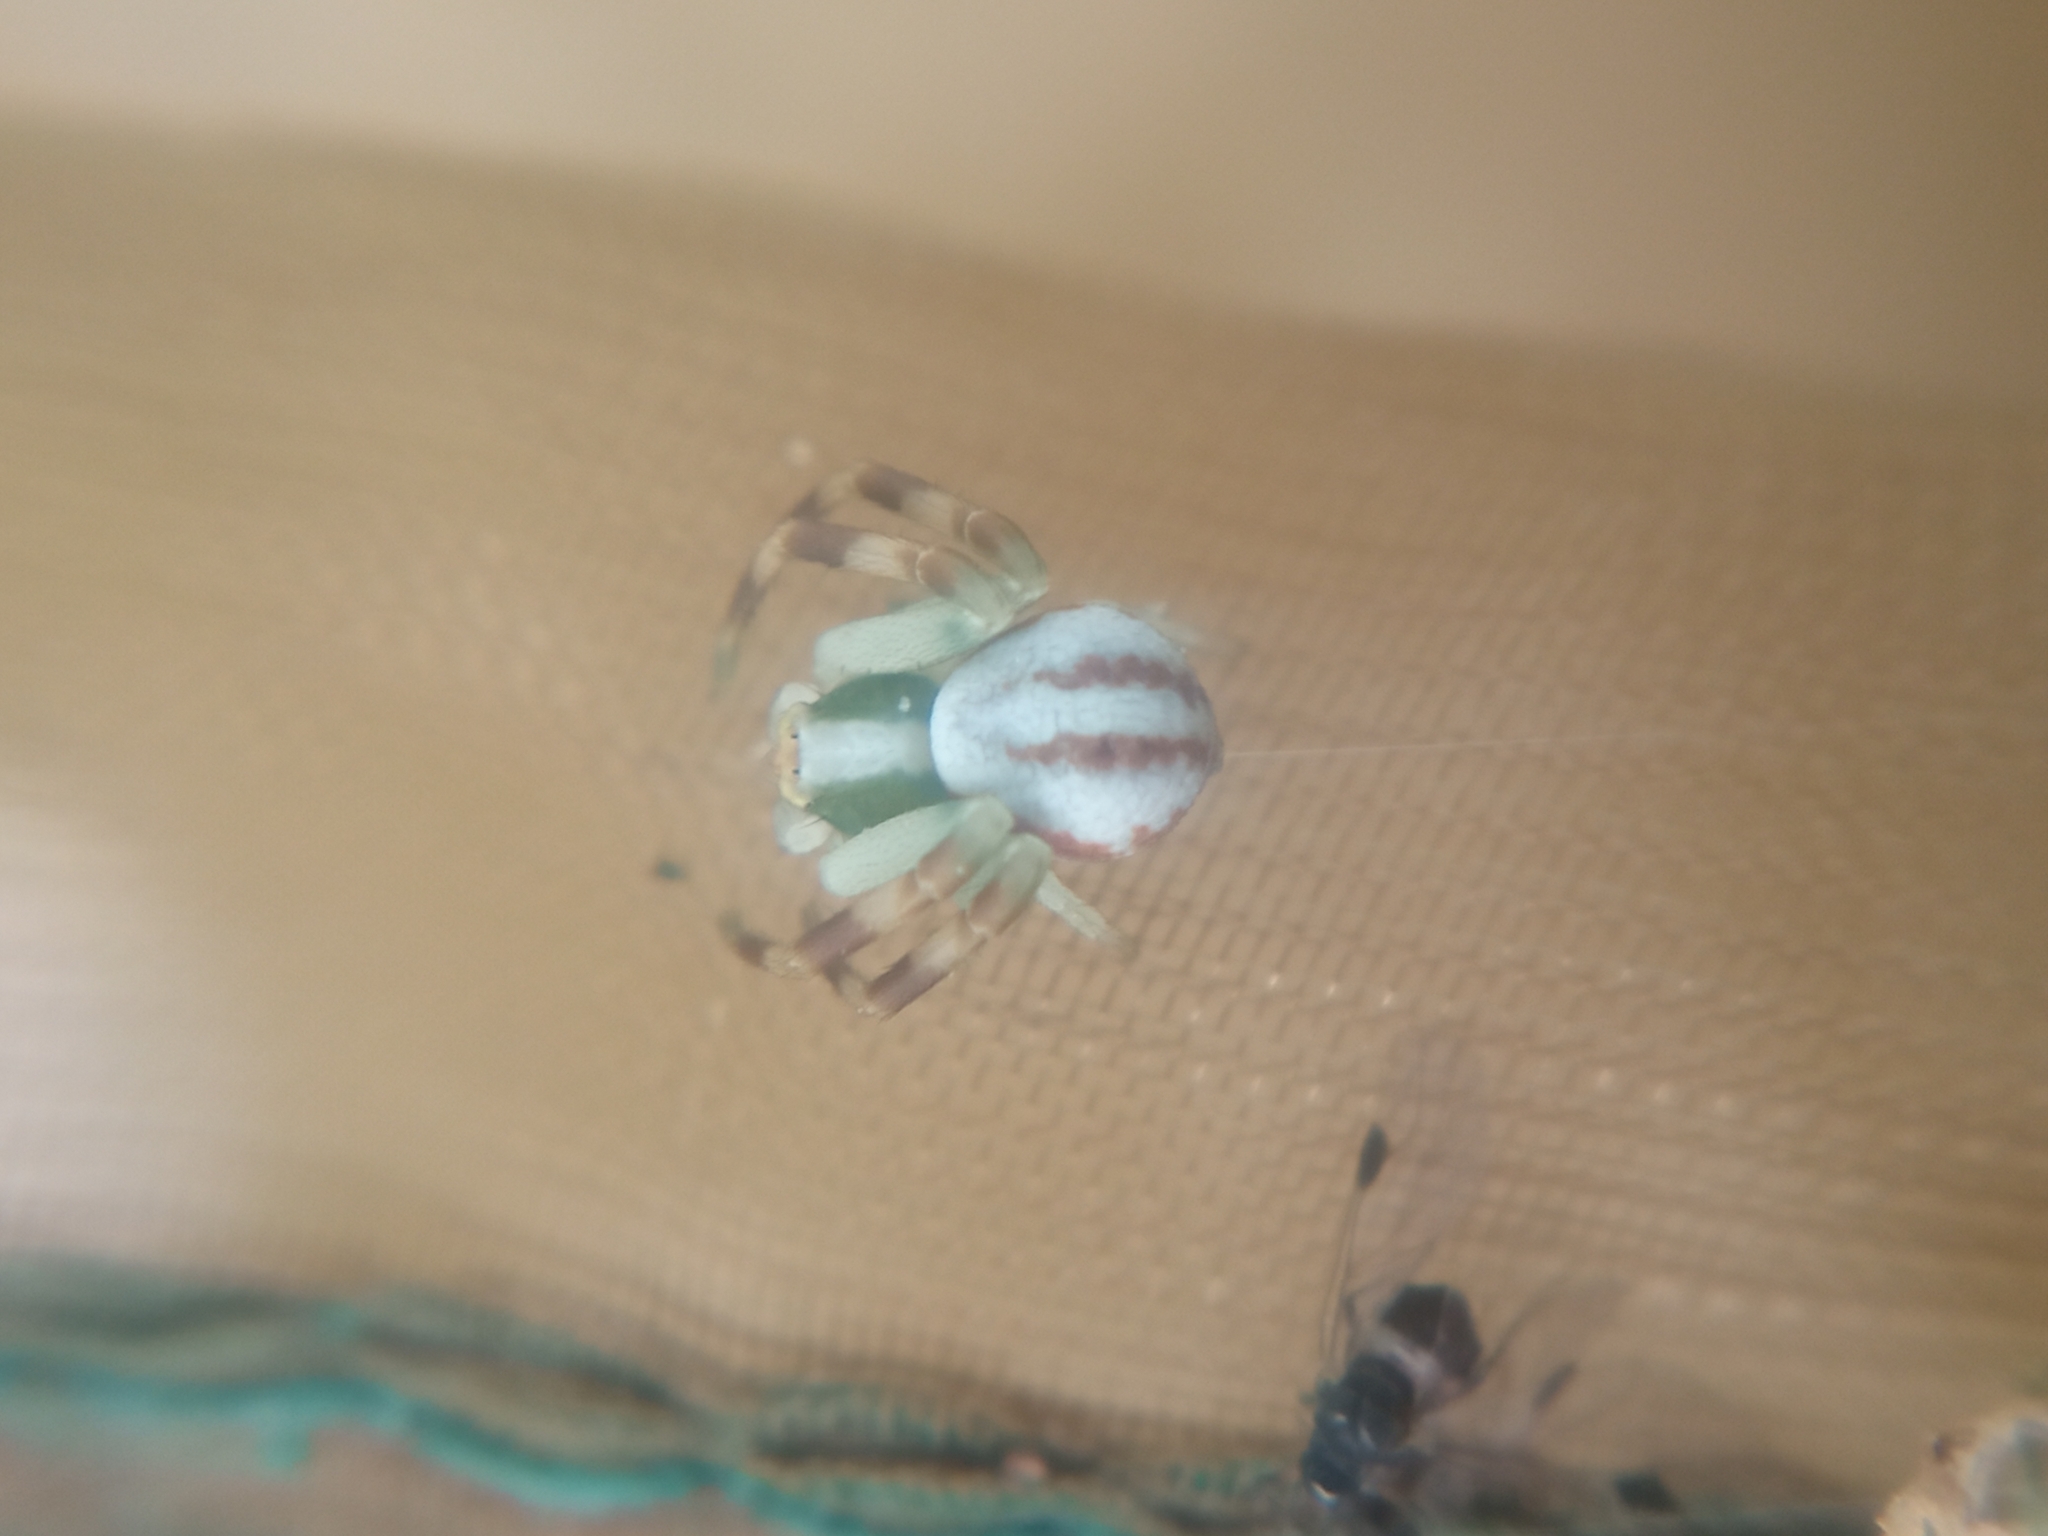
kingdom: Animalia
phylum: Arthropoda
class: Arachnida
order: Araneae
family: Thomisidae
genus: Misumena
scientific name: Misumena vatia
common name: Goldenrod crab spider
